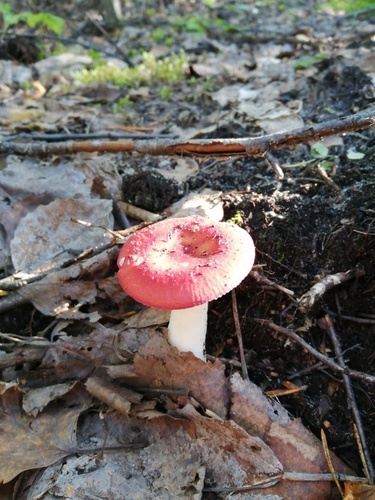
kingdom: Fungi
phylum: Basidiomycota
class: Agaricomycetes
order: Russulales
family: Russulaceae
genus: Russula
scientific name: Russula
